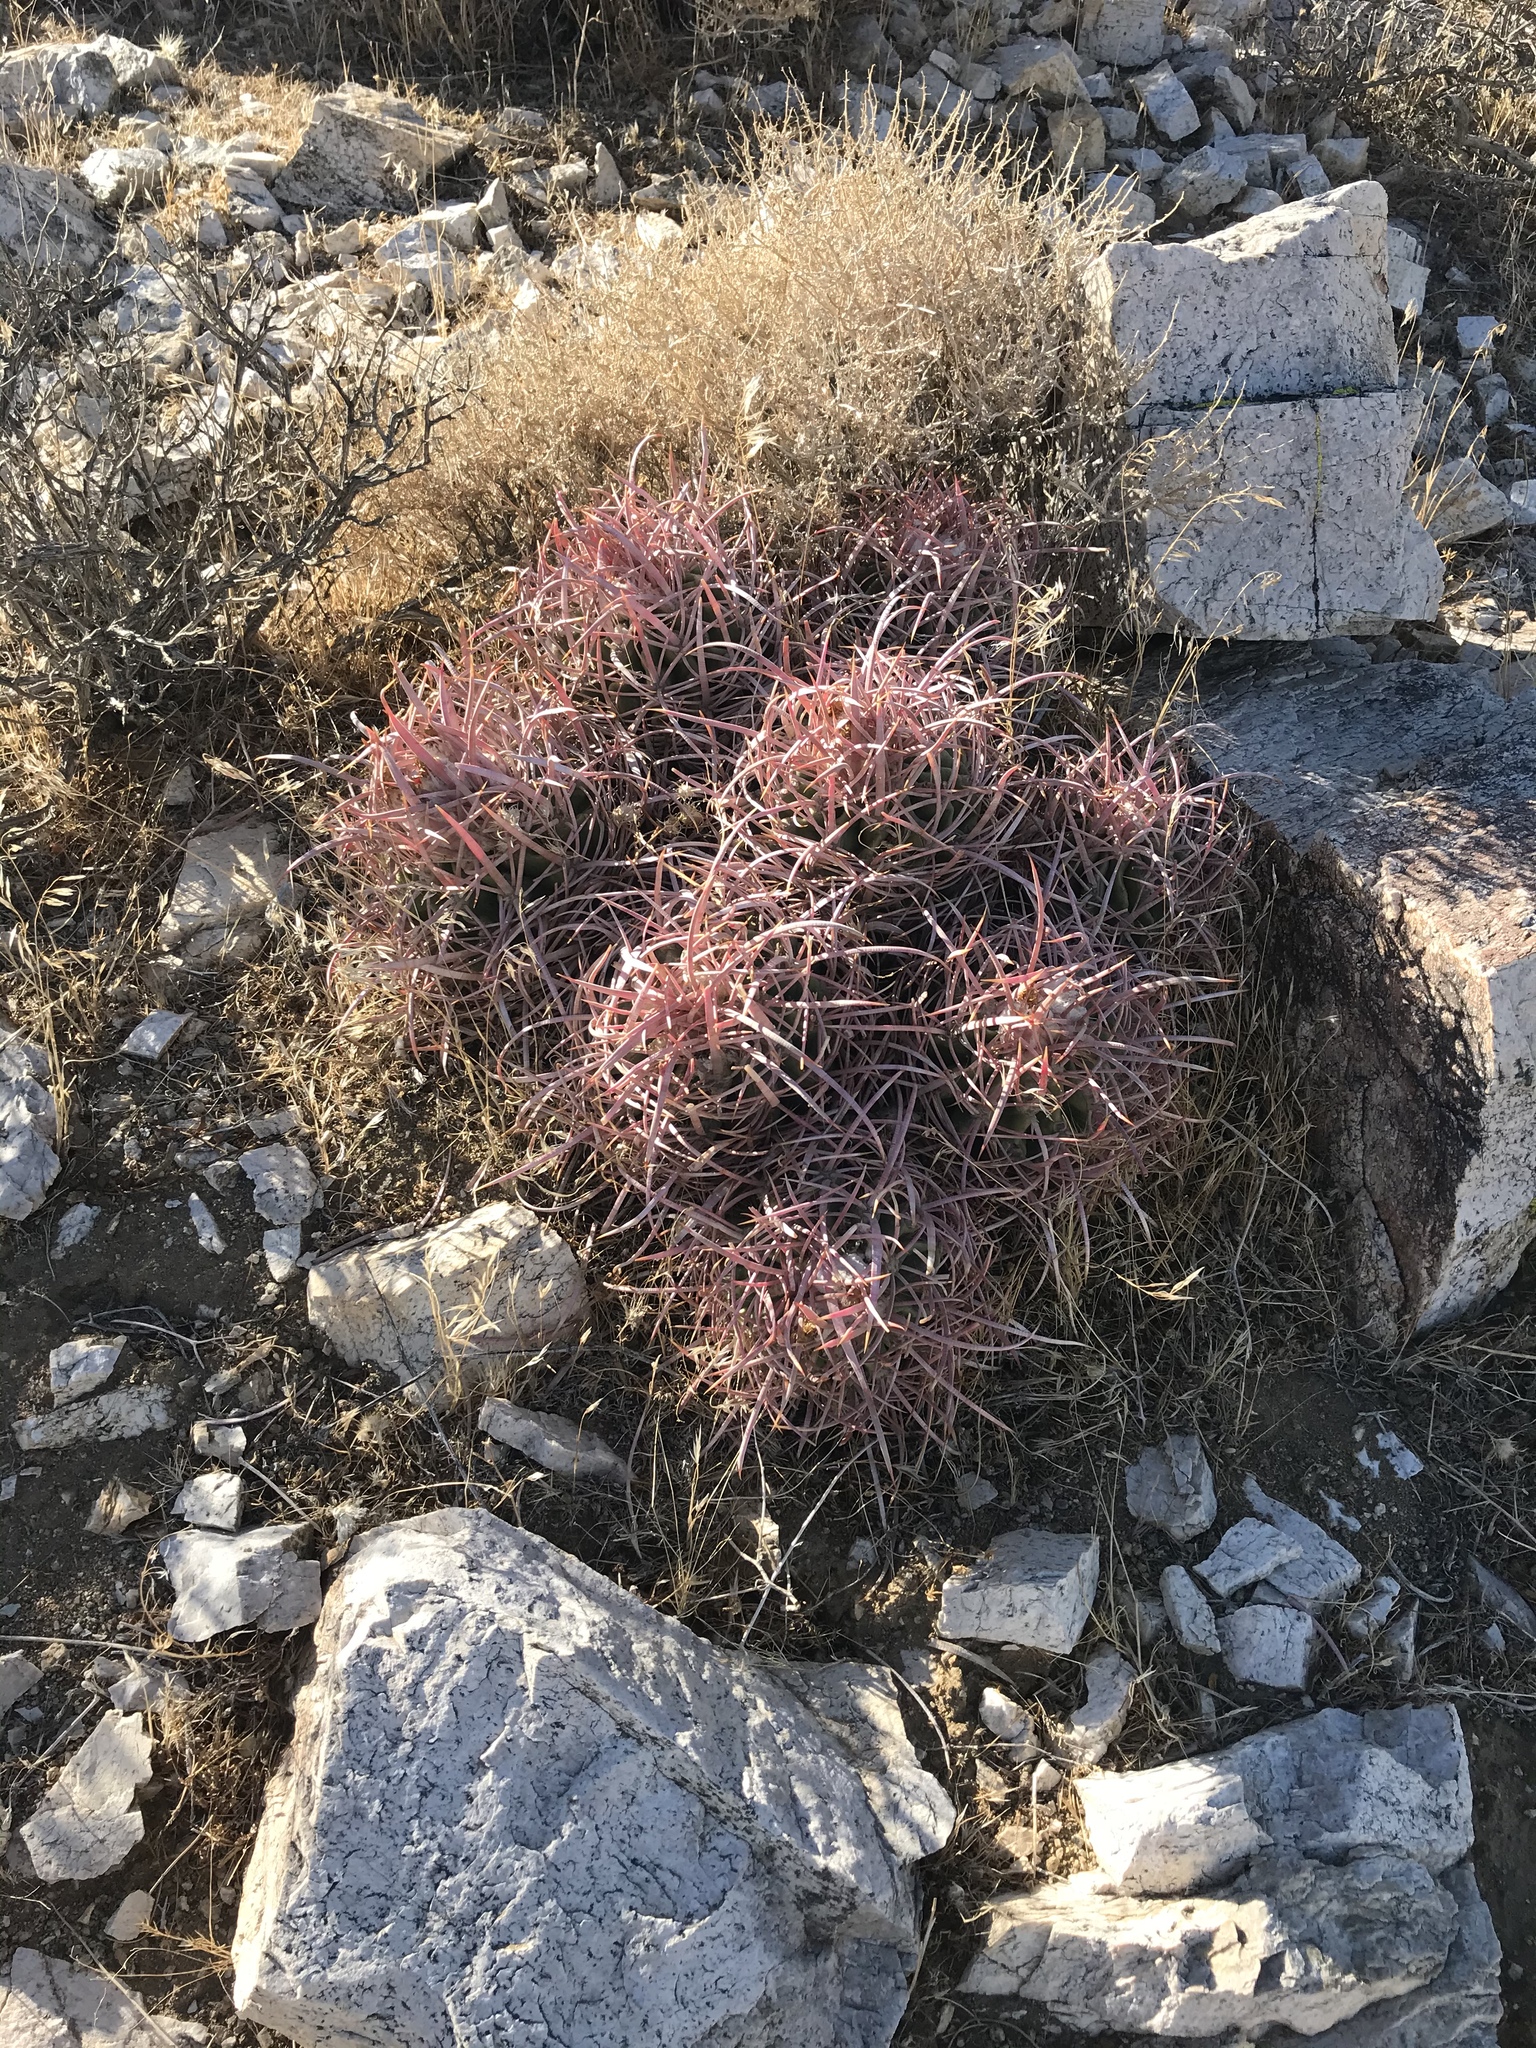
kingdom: Plantae
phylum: Tracheophyta
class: Magnoliopsida
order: Caryophyllales
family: Cactaceae
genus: Echinocactus
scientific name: Echinocactus polycephalus
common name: Cottontop cactus
